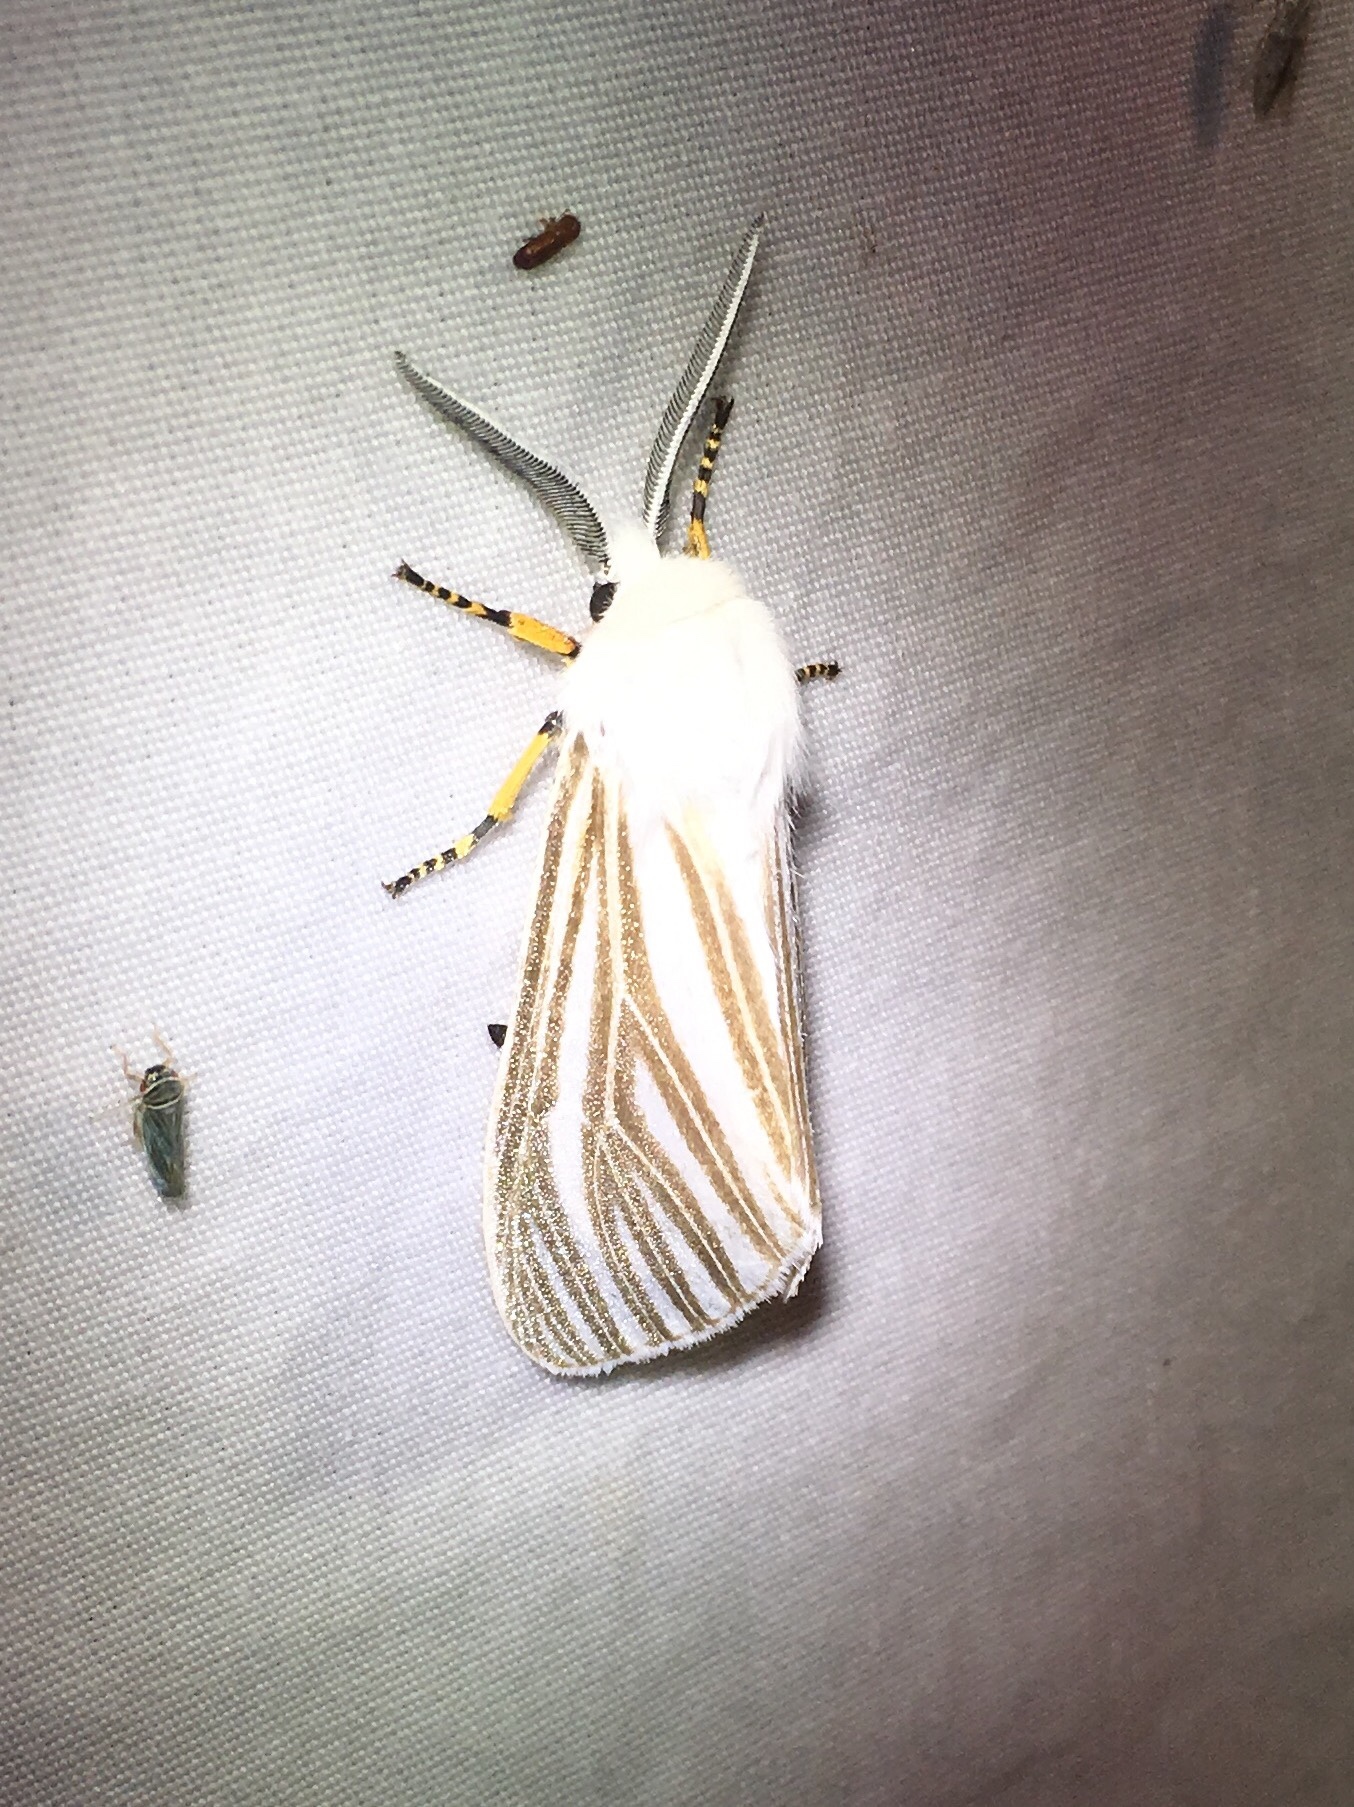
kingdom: Animalia
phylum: Arthropoda
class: Insecta
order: Lepidoptera
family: Erebidae
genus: Seirarctia
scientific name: Seirarctia echo
